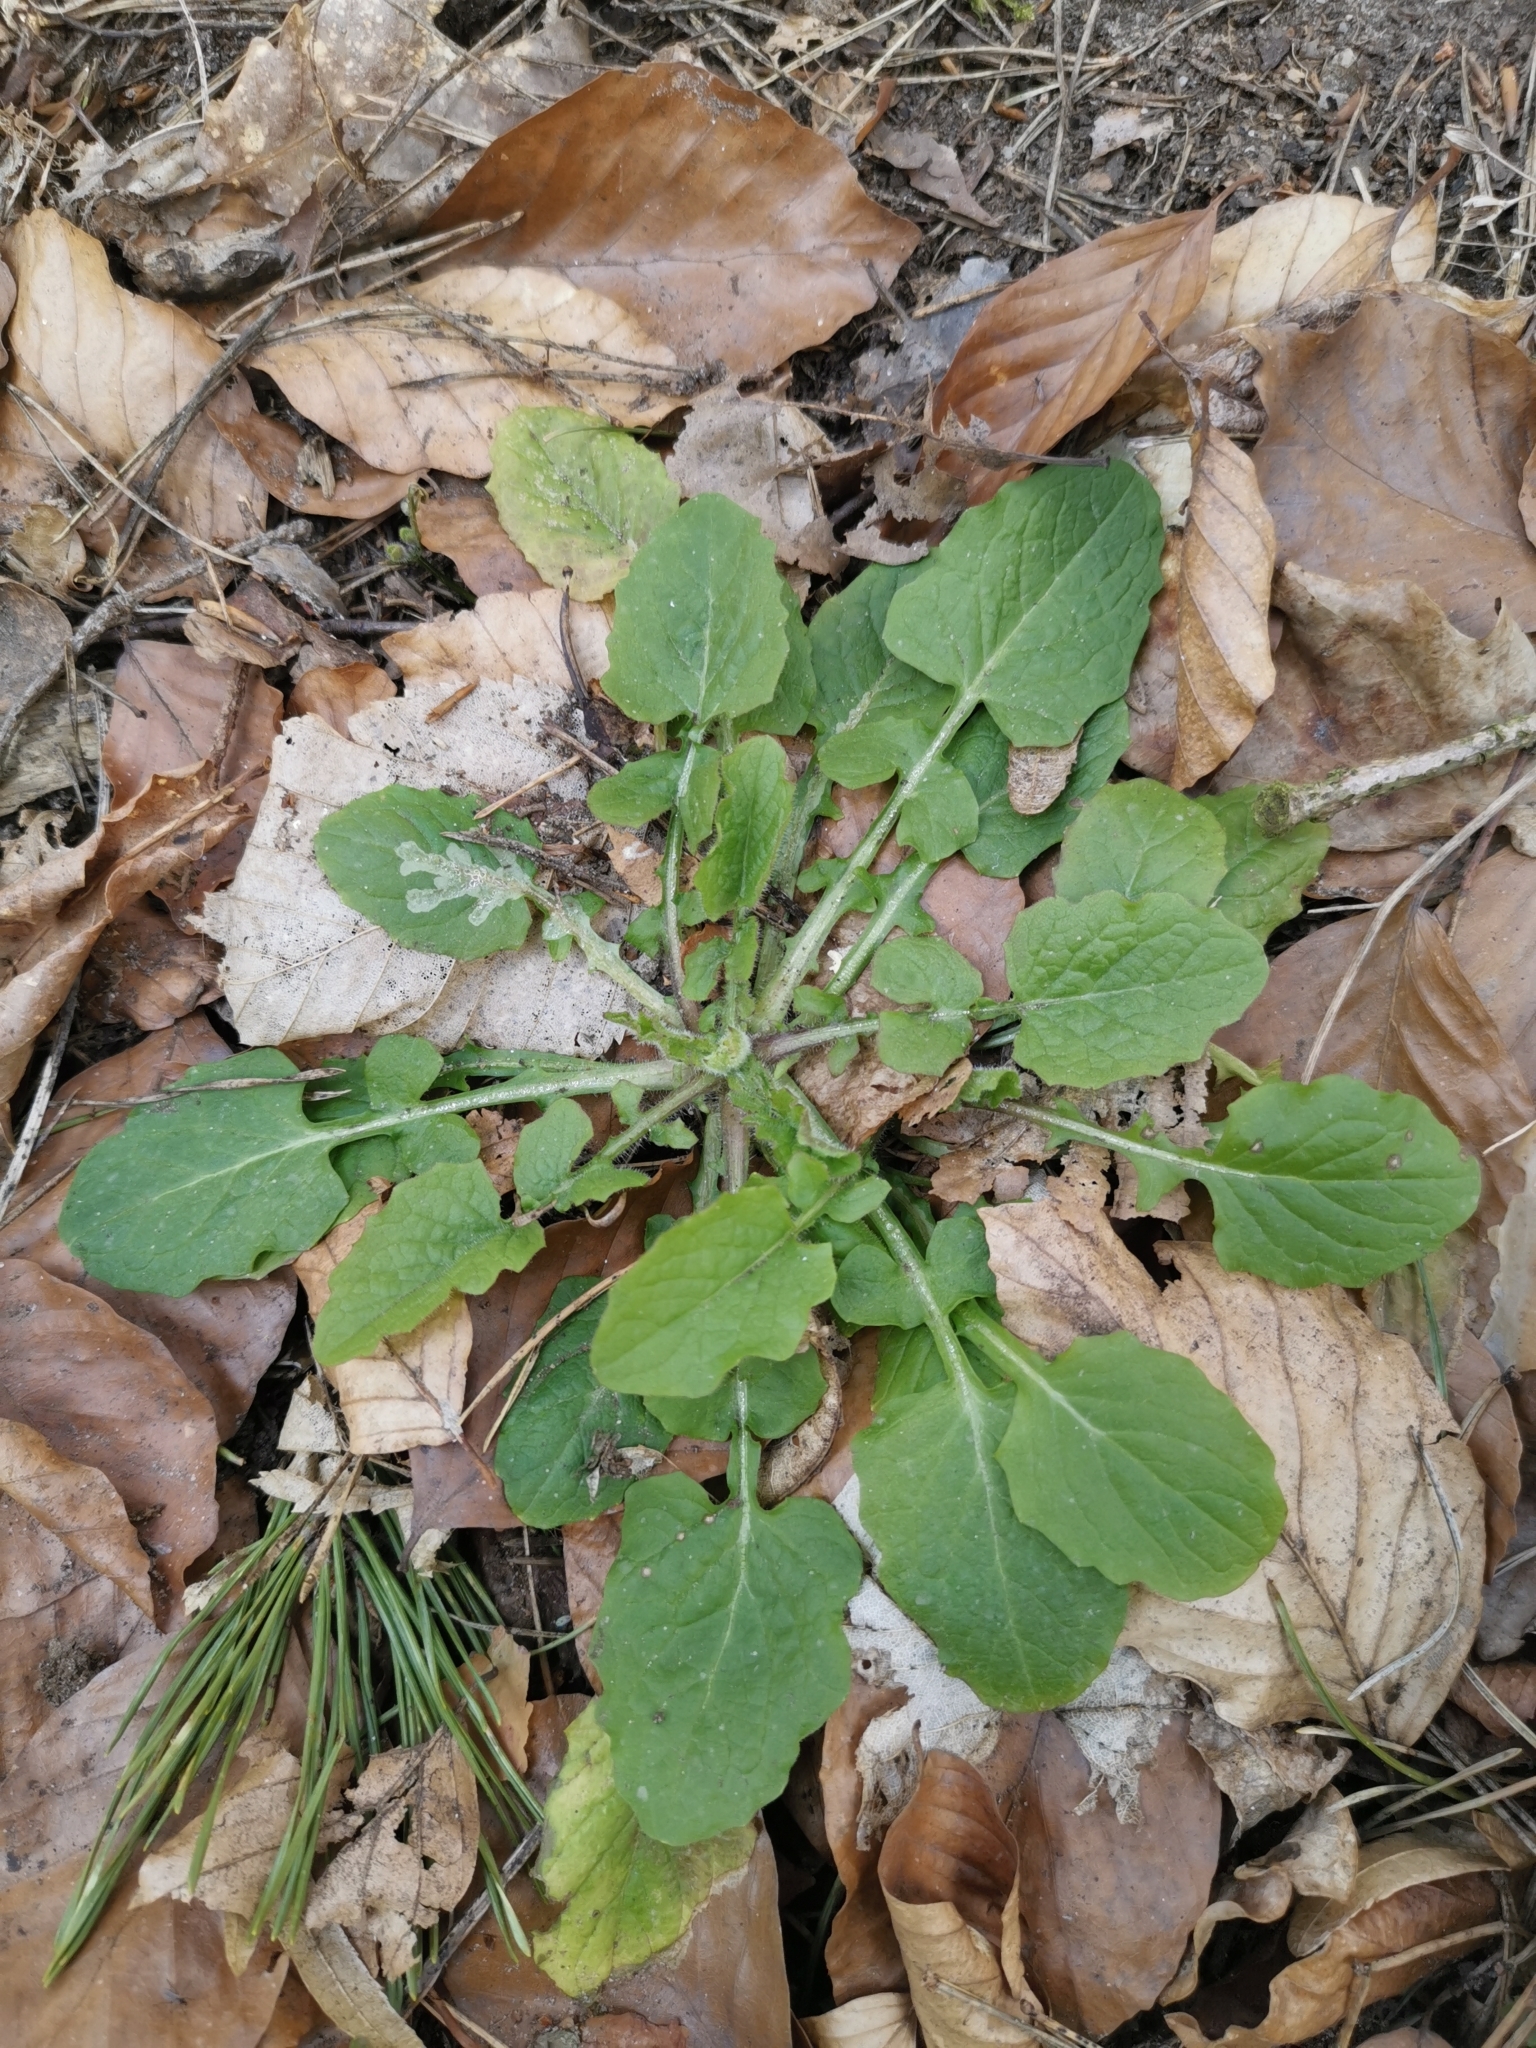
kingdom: Plantae
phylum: Tracheophyta
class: Magnoliopsida
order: Asterales
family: Asteraceae
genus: Lapsana
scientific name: Lapsana communis
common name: Nipplewort
